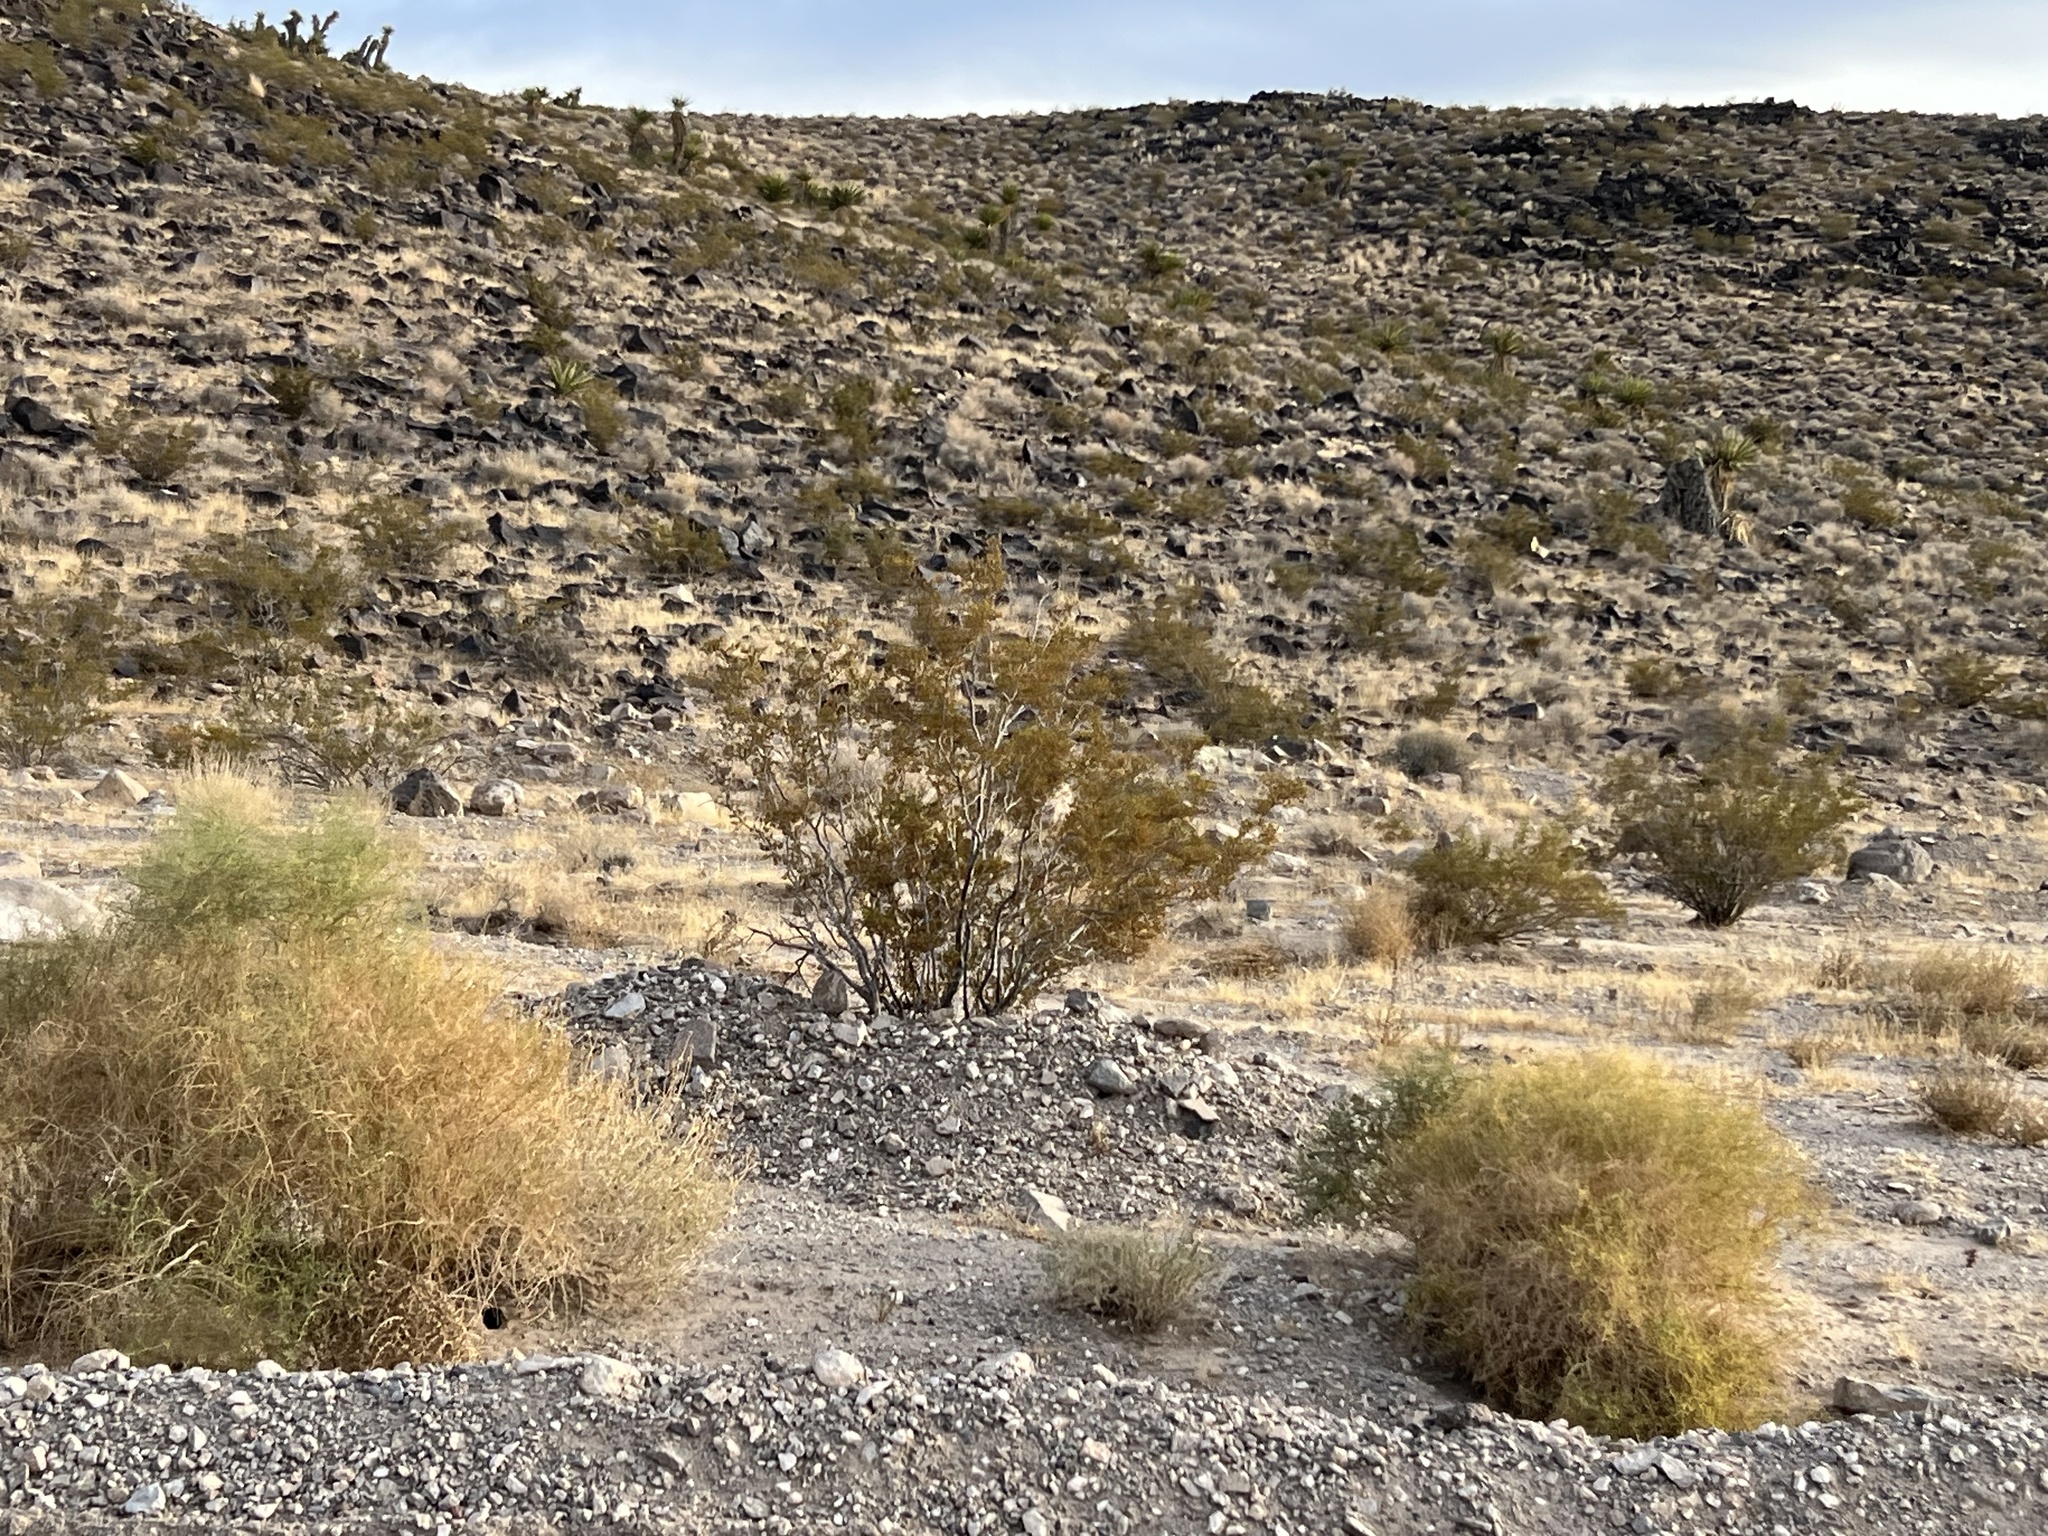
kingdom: Plantae
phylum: Tracheophyta
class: Magnoliopsida
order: Zygophyllales
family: Zygophyllaceae
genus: Larrea
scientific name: Larrea tridentata
